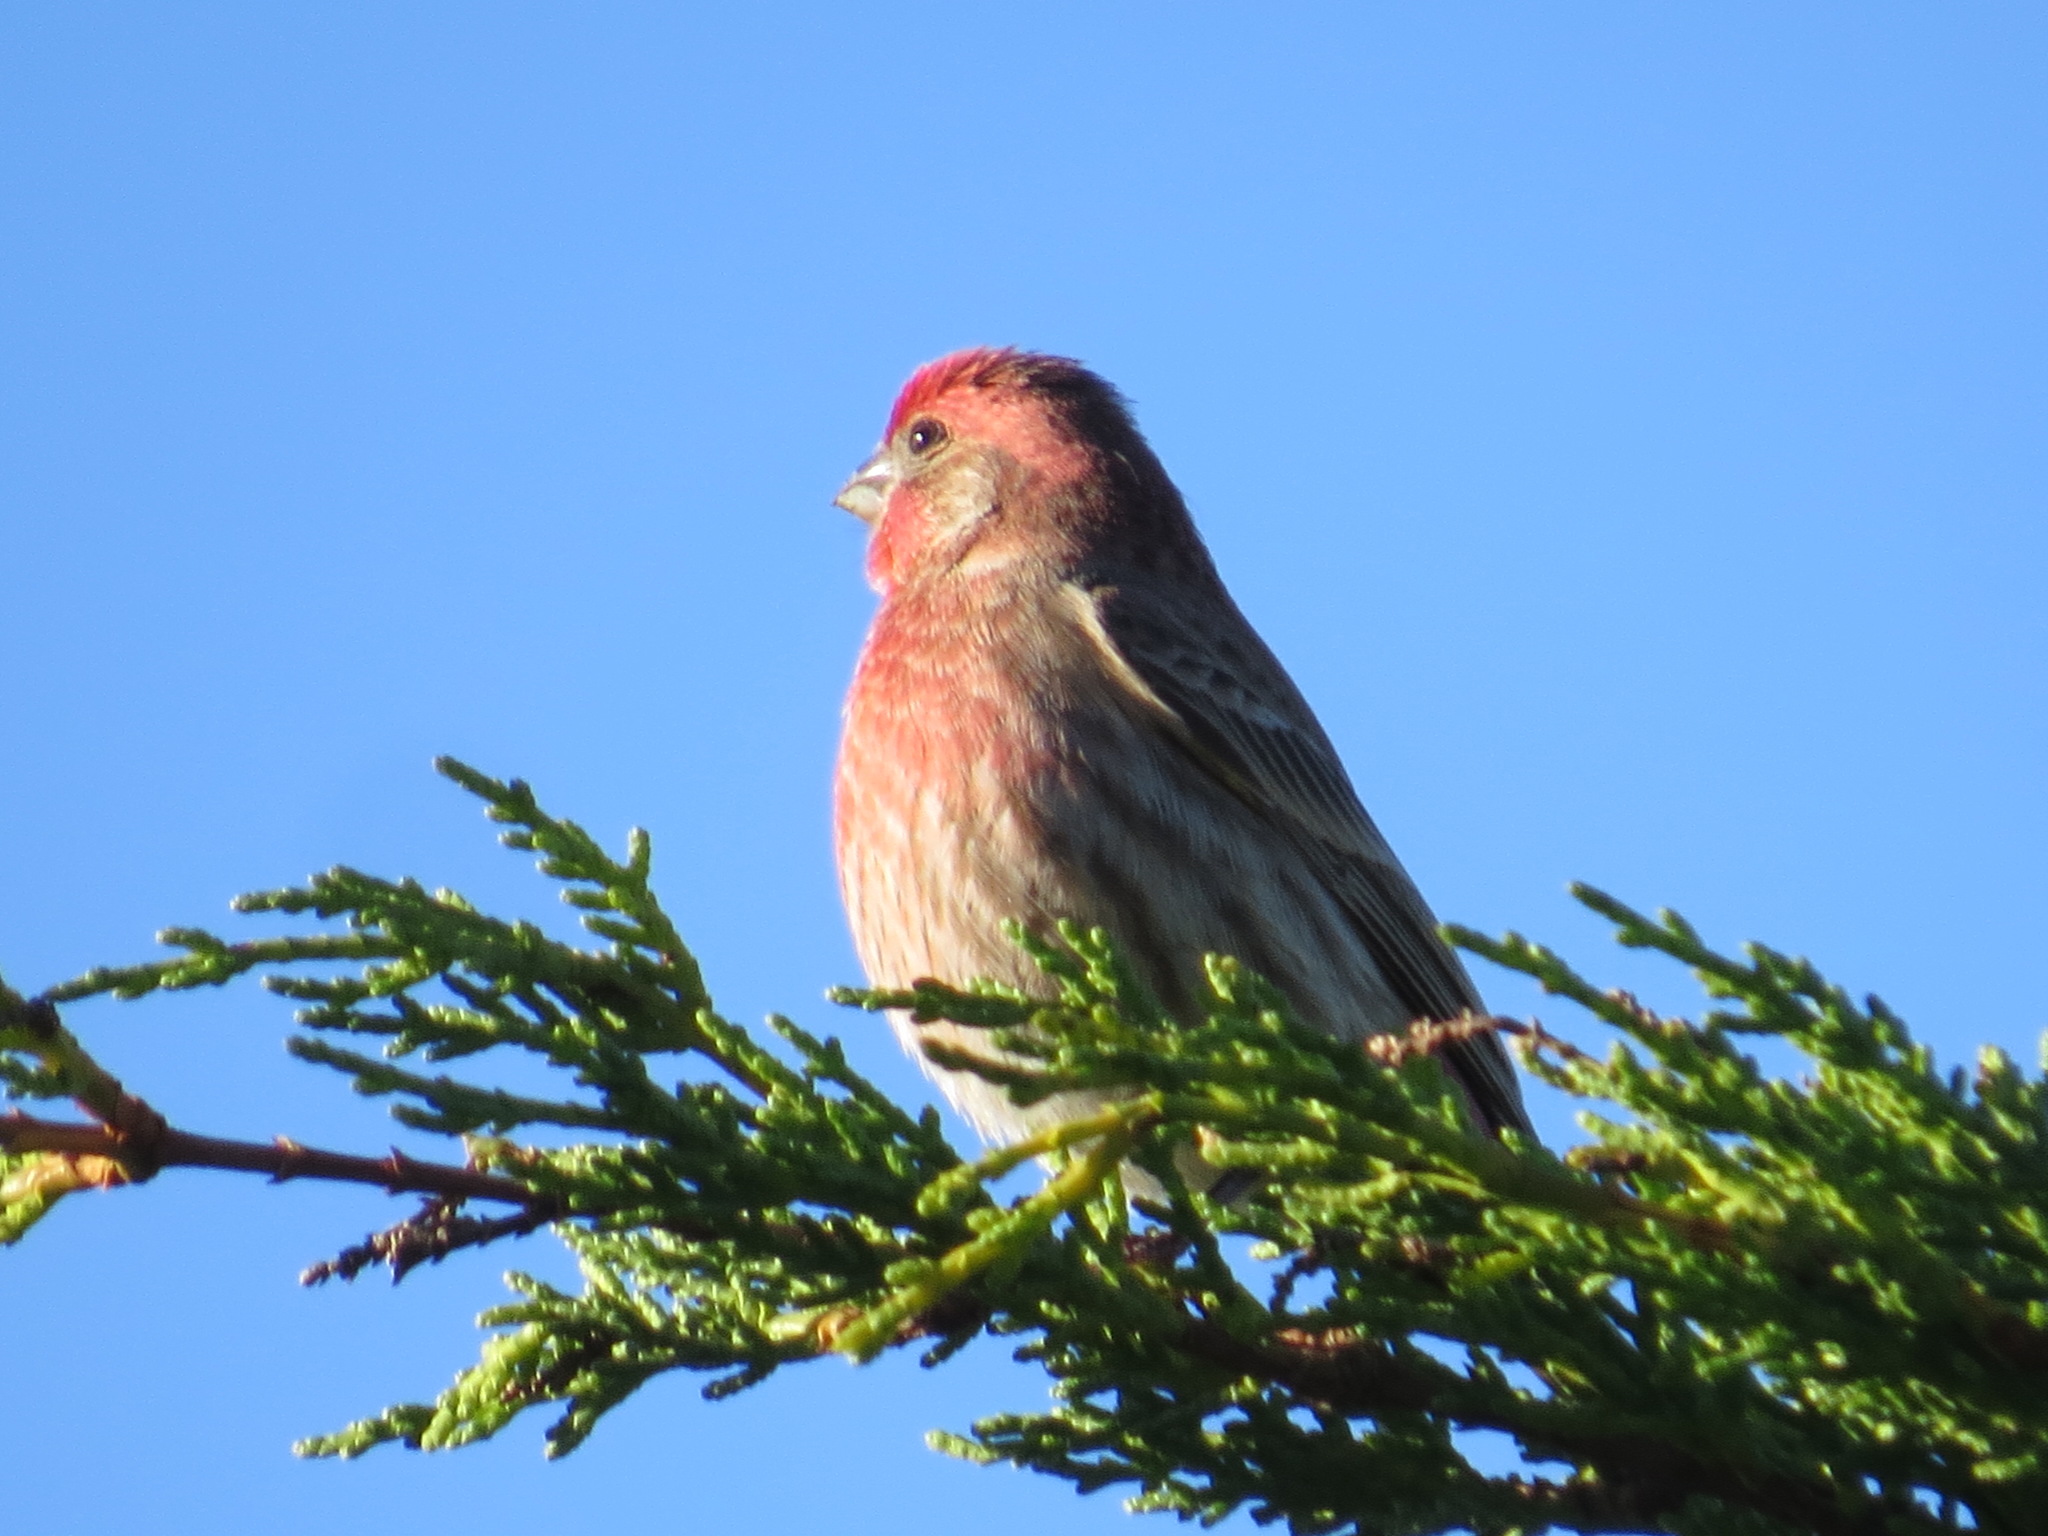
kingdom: Animalia
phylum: Chordata
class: Aves
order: Passeriformes
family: Fringillidae
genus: Haemorhous
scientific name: Haemorhous mexicanus
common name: House finch
